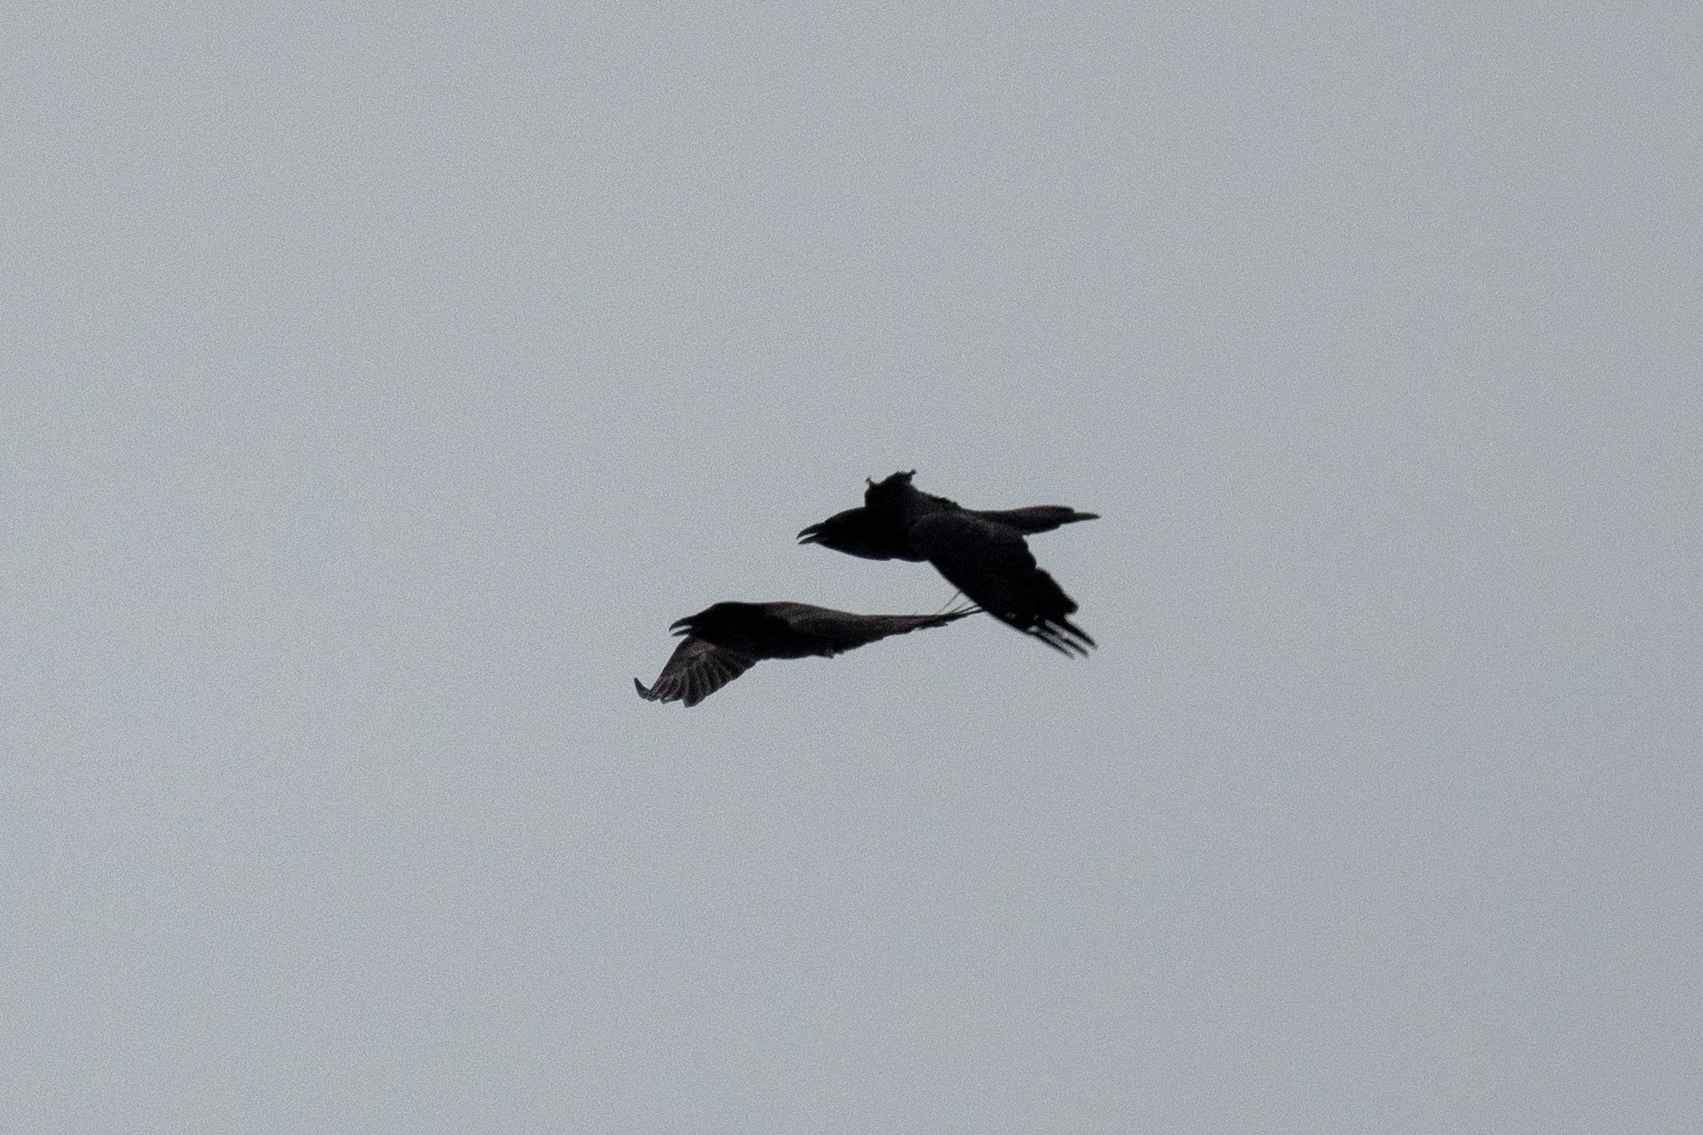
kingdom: Animalia
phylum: Chordata
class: Aves
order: Passeriformes
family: Corvidae
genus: Corvus
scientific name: Corvus corax
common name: Common raven
